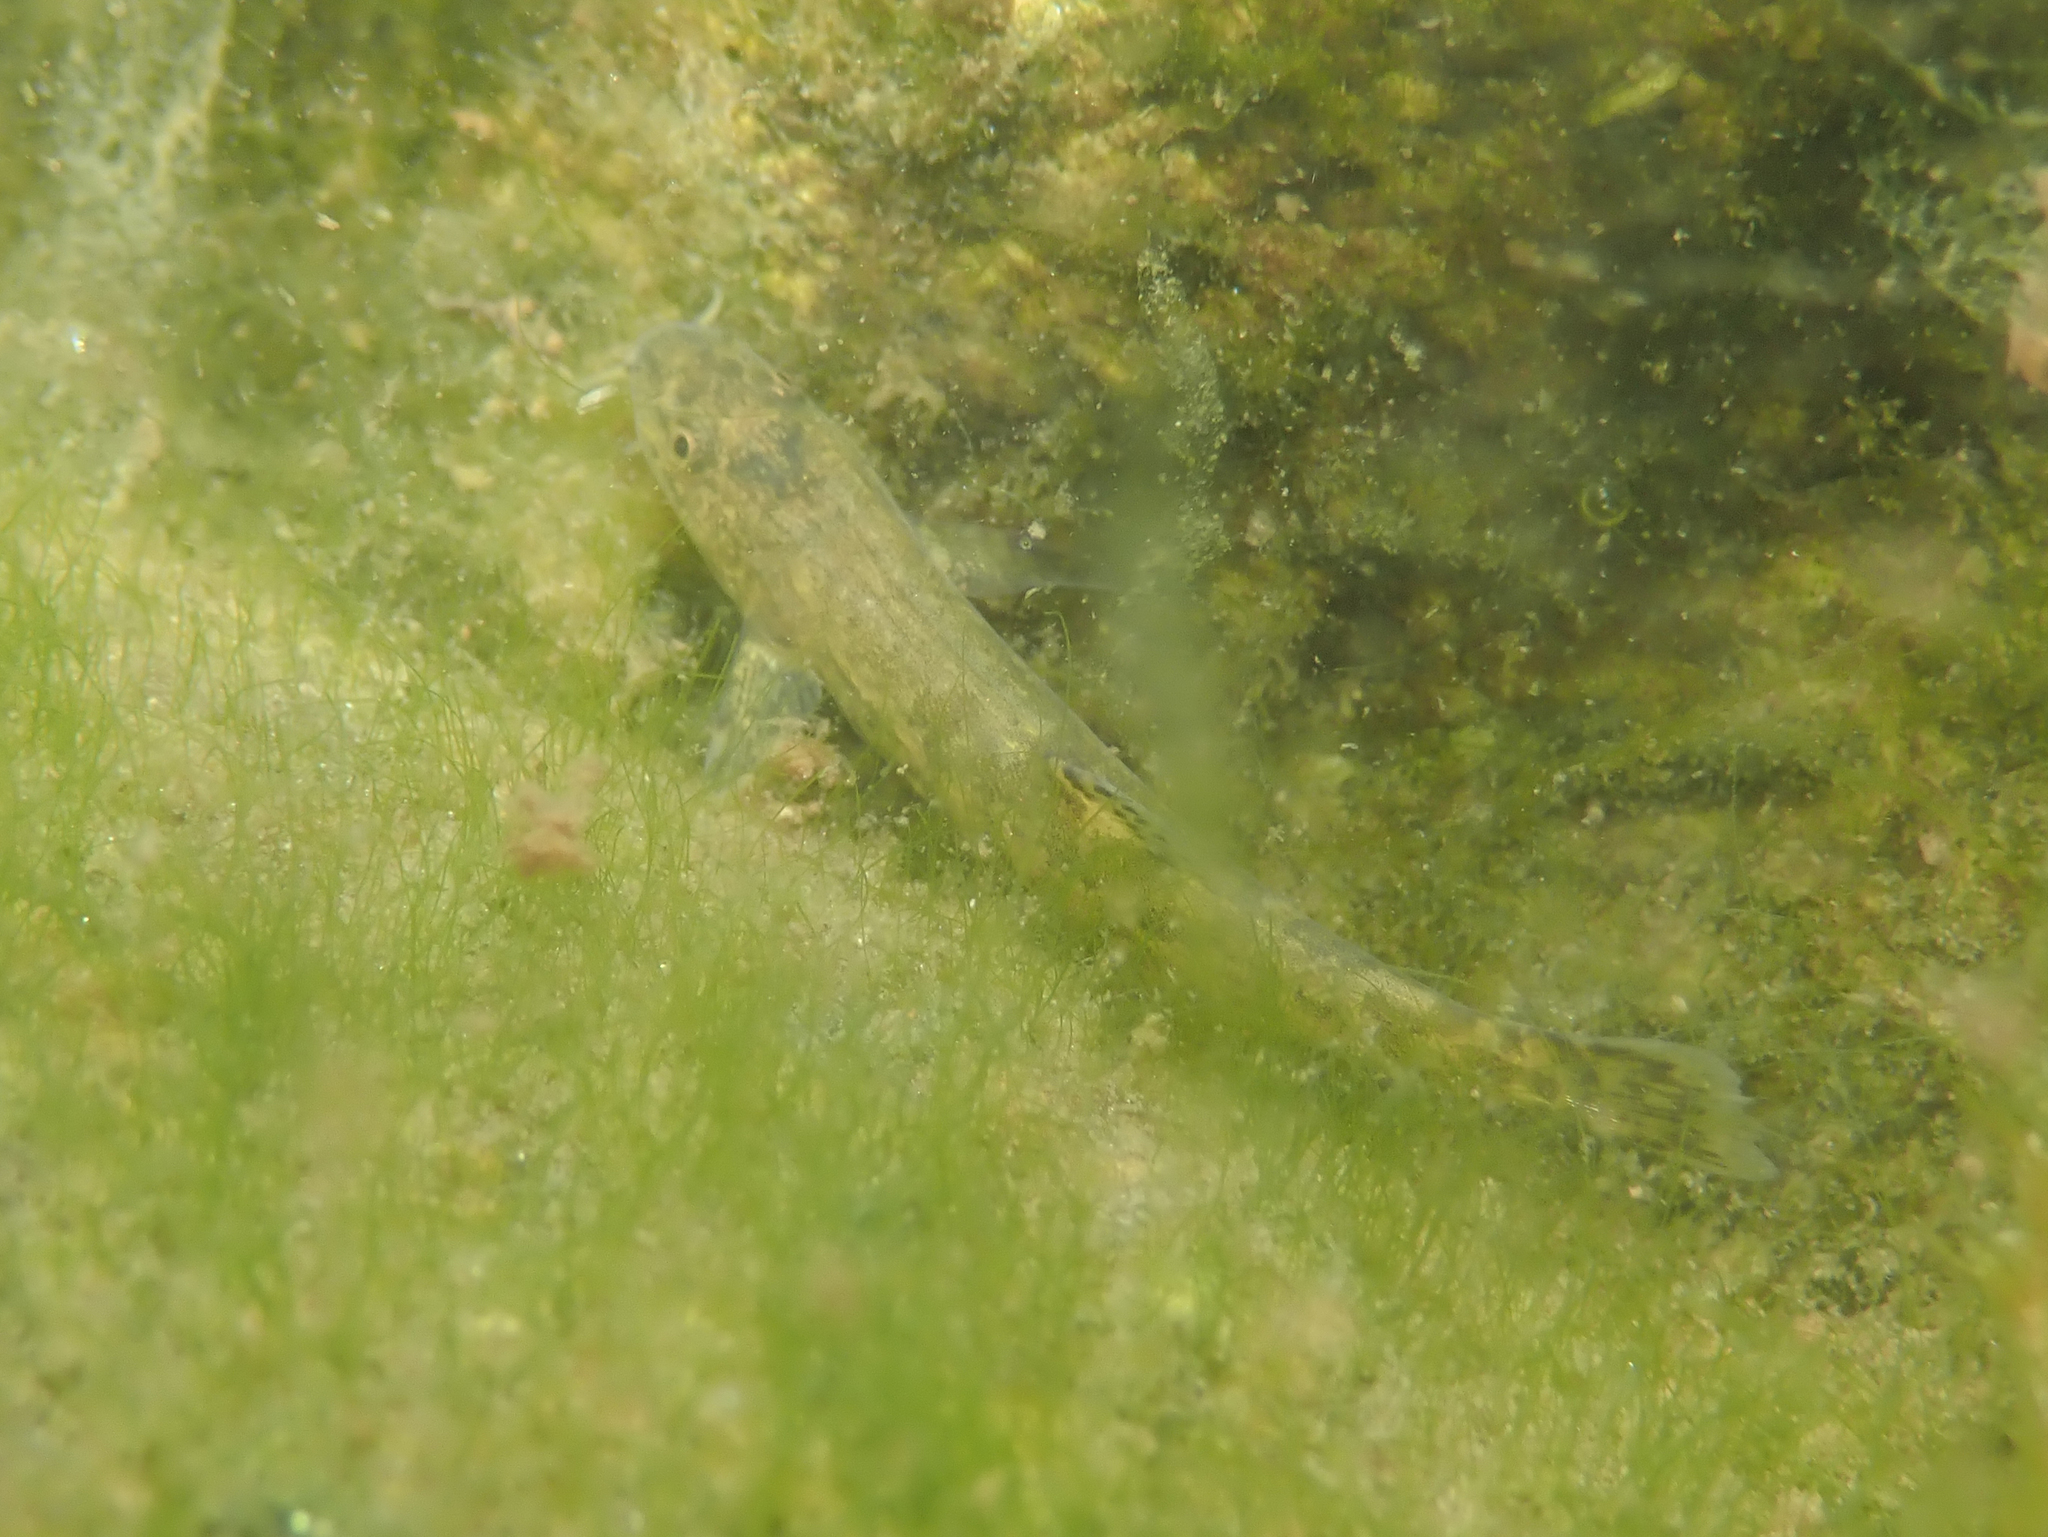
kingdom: Animalia
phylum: Chordata
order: Cypriniformes
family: Nemacheilidae
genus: Barbatula
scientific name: Barbatula leoparda
